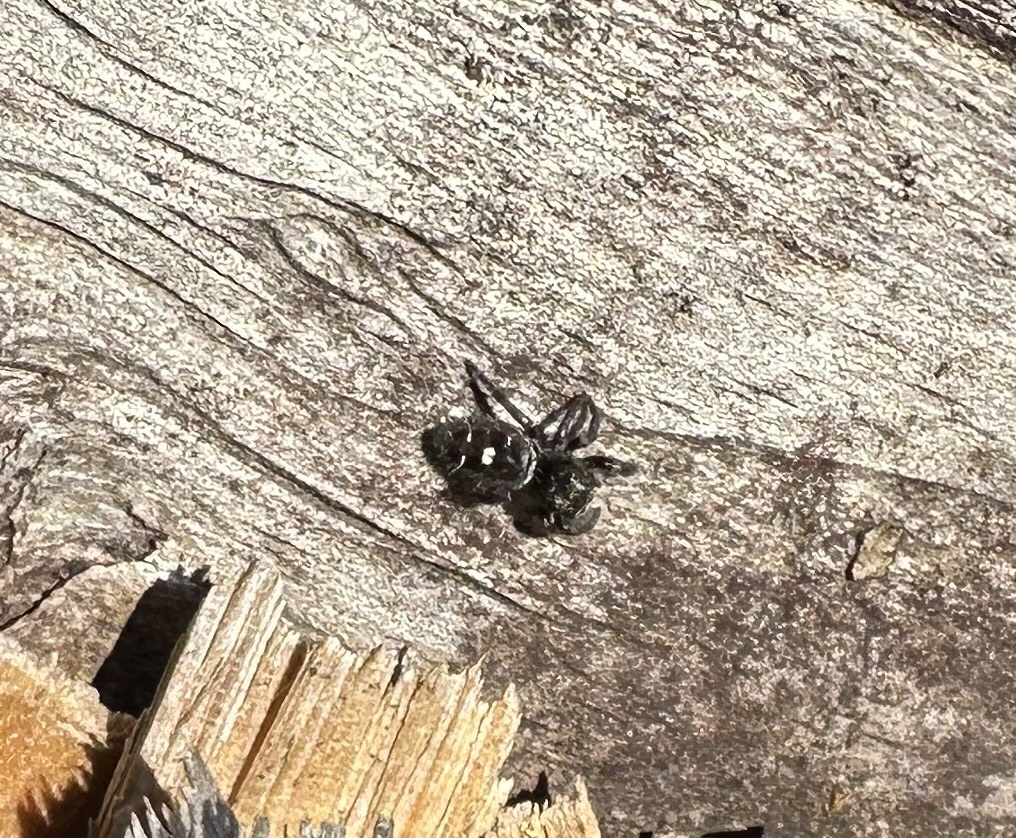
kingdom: Animalia
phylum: Arthropoda
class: Arachnida
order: Araneae
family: Salticidae
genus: Phidippus
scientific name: Phidippus audax
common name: Bold jumper
